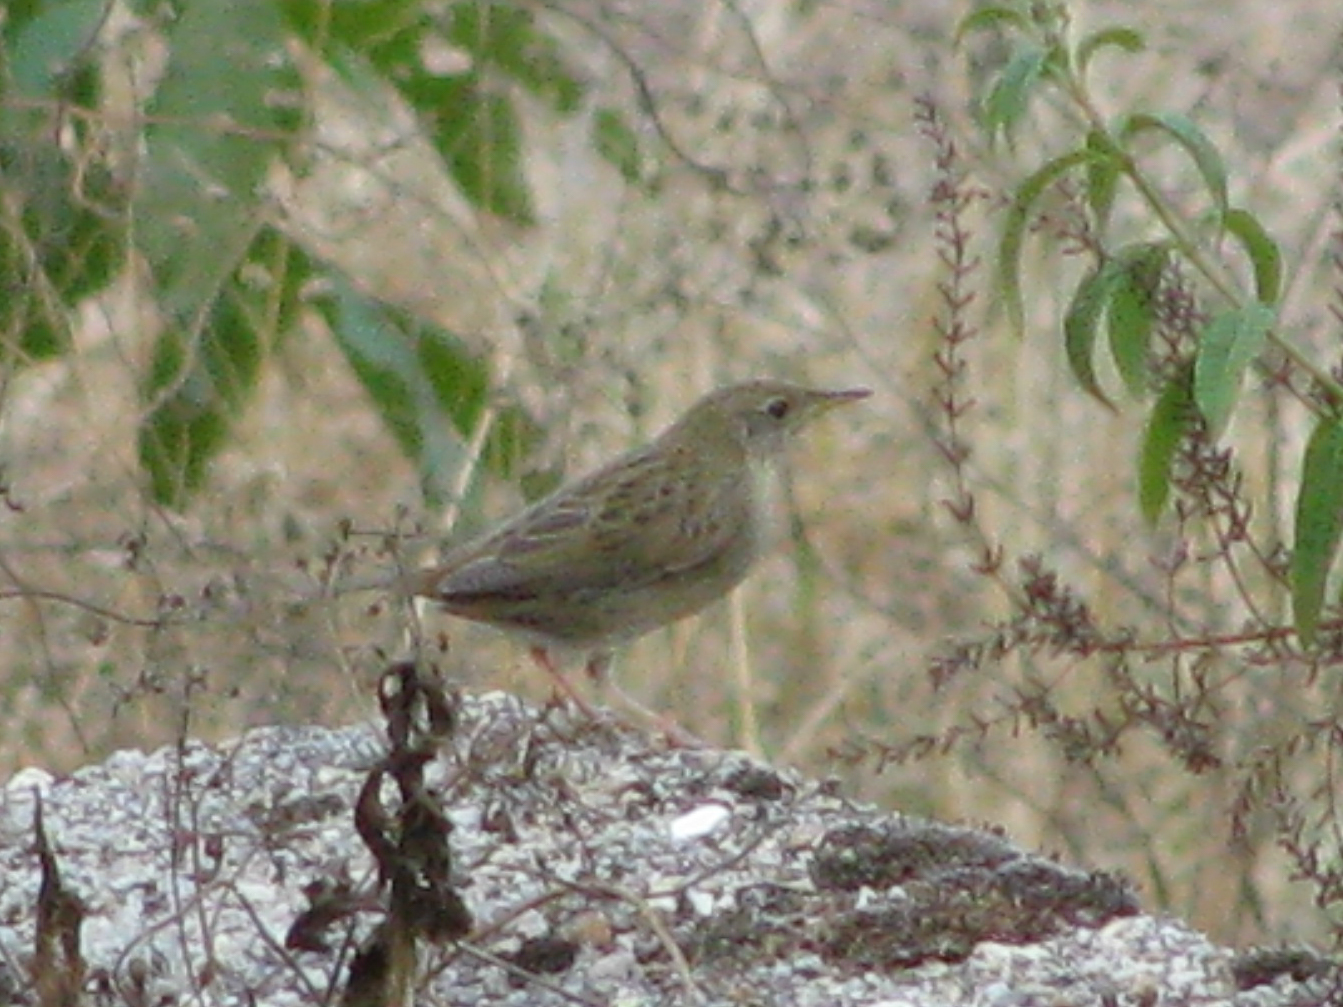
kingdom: Animalia
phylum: Chordata
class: Aves
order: Passeriformes
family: Locustellidae
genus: Locustella
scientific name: Locustella naevia
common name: Common grasshopper warbler
